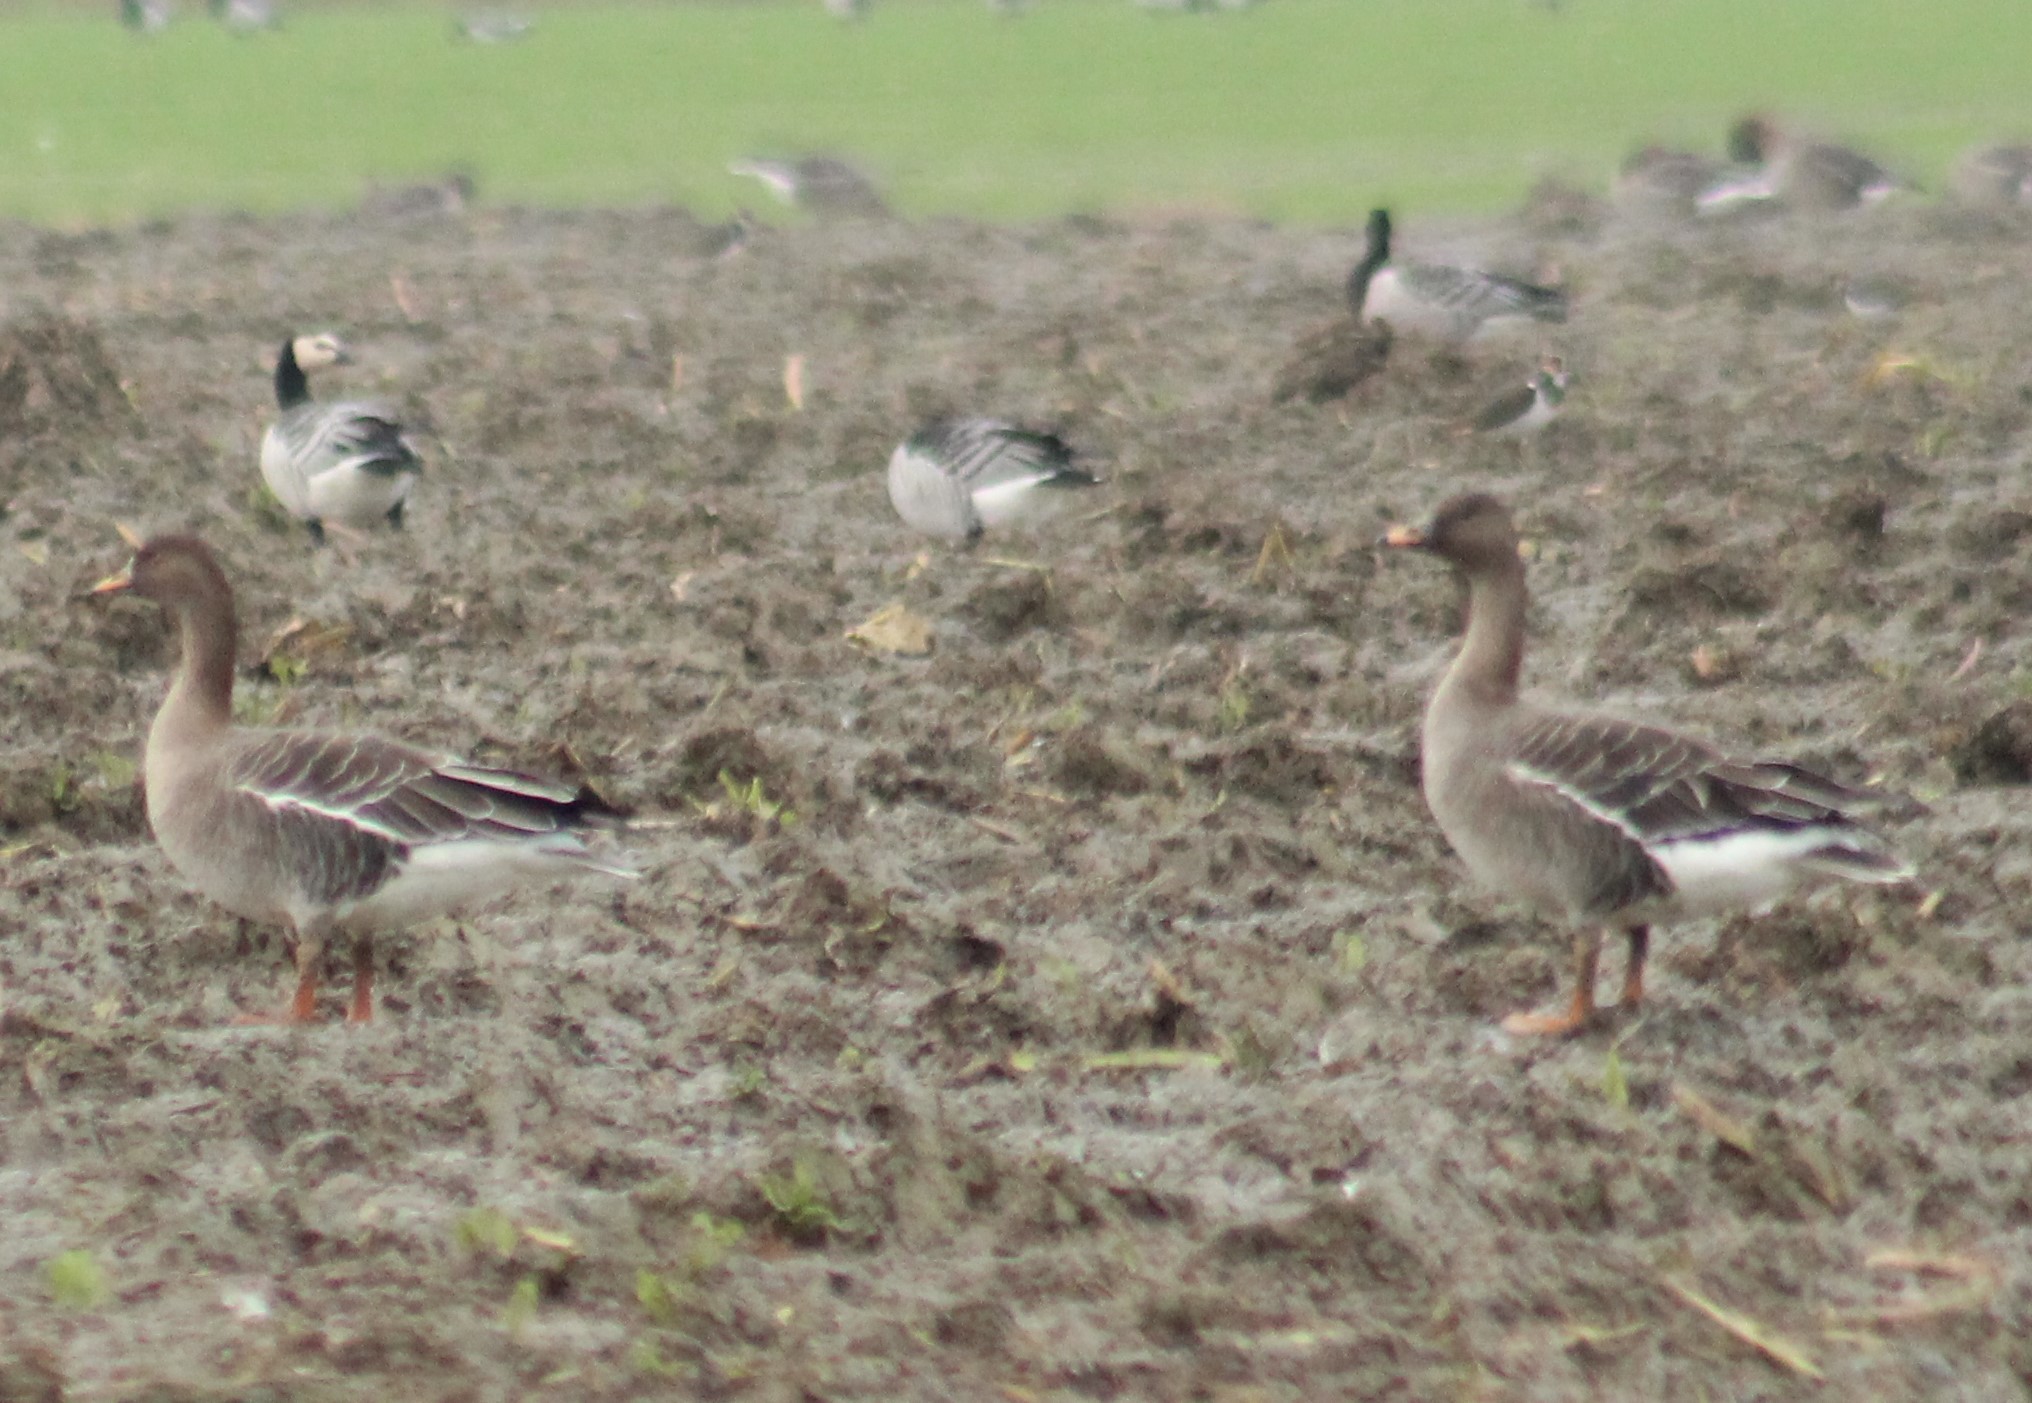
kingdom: Animalia
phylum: Chordata
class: Aves
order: Anseriformes
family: Anatidae
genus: Anser
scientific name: Anser serrirostris
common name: Tundra bean goose
